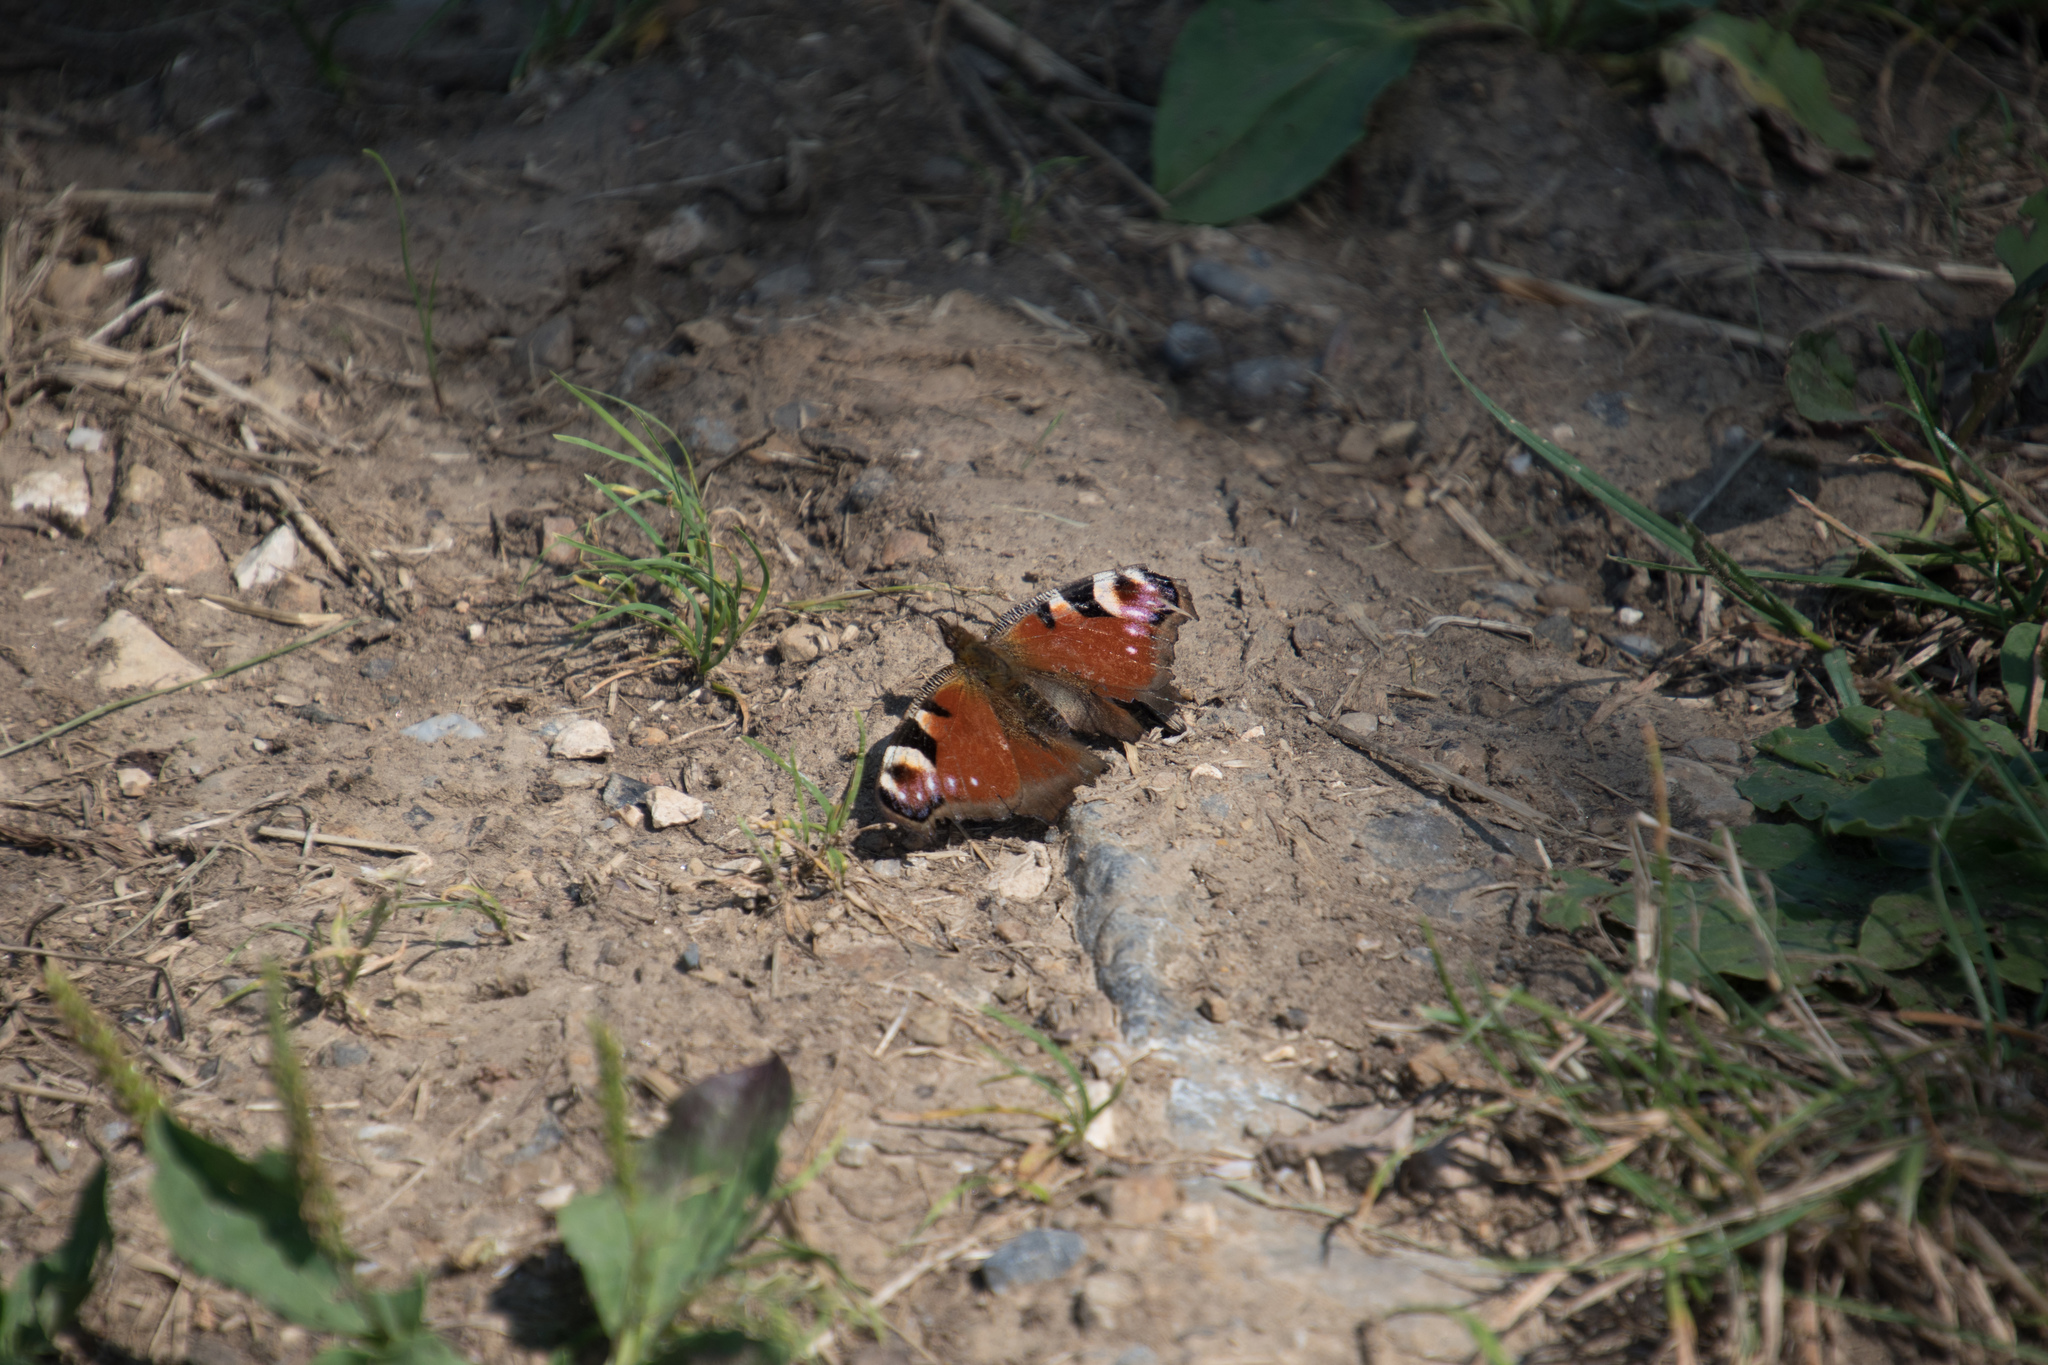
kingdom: Animalia
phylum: Arthropoda
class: Insecta
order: Lepidoptera
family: Nymphalidae
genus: Aglais
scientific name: Aglais io
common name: Peacock
